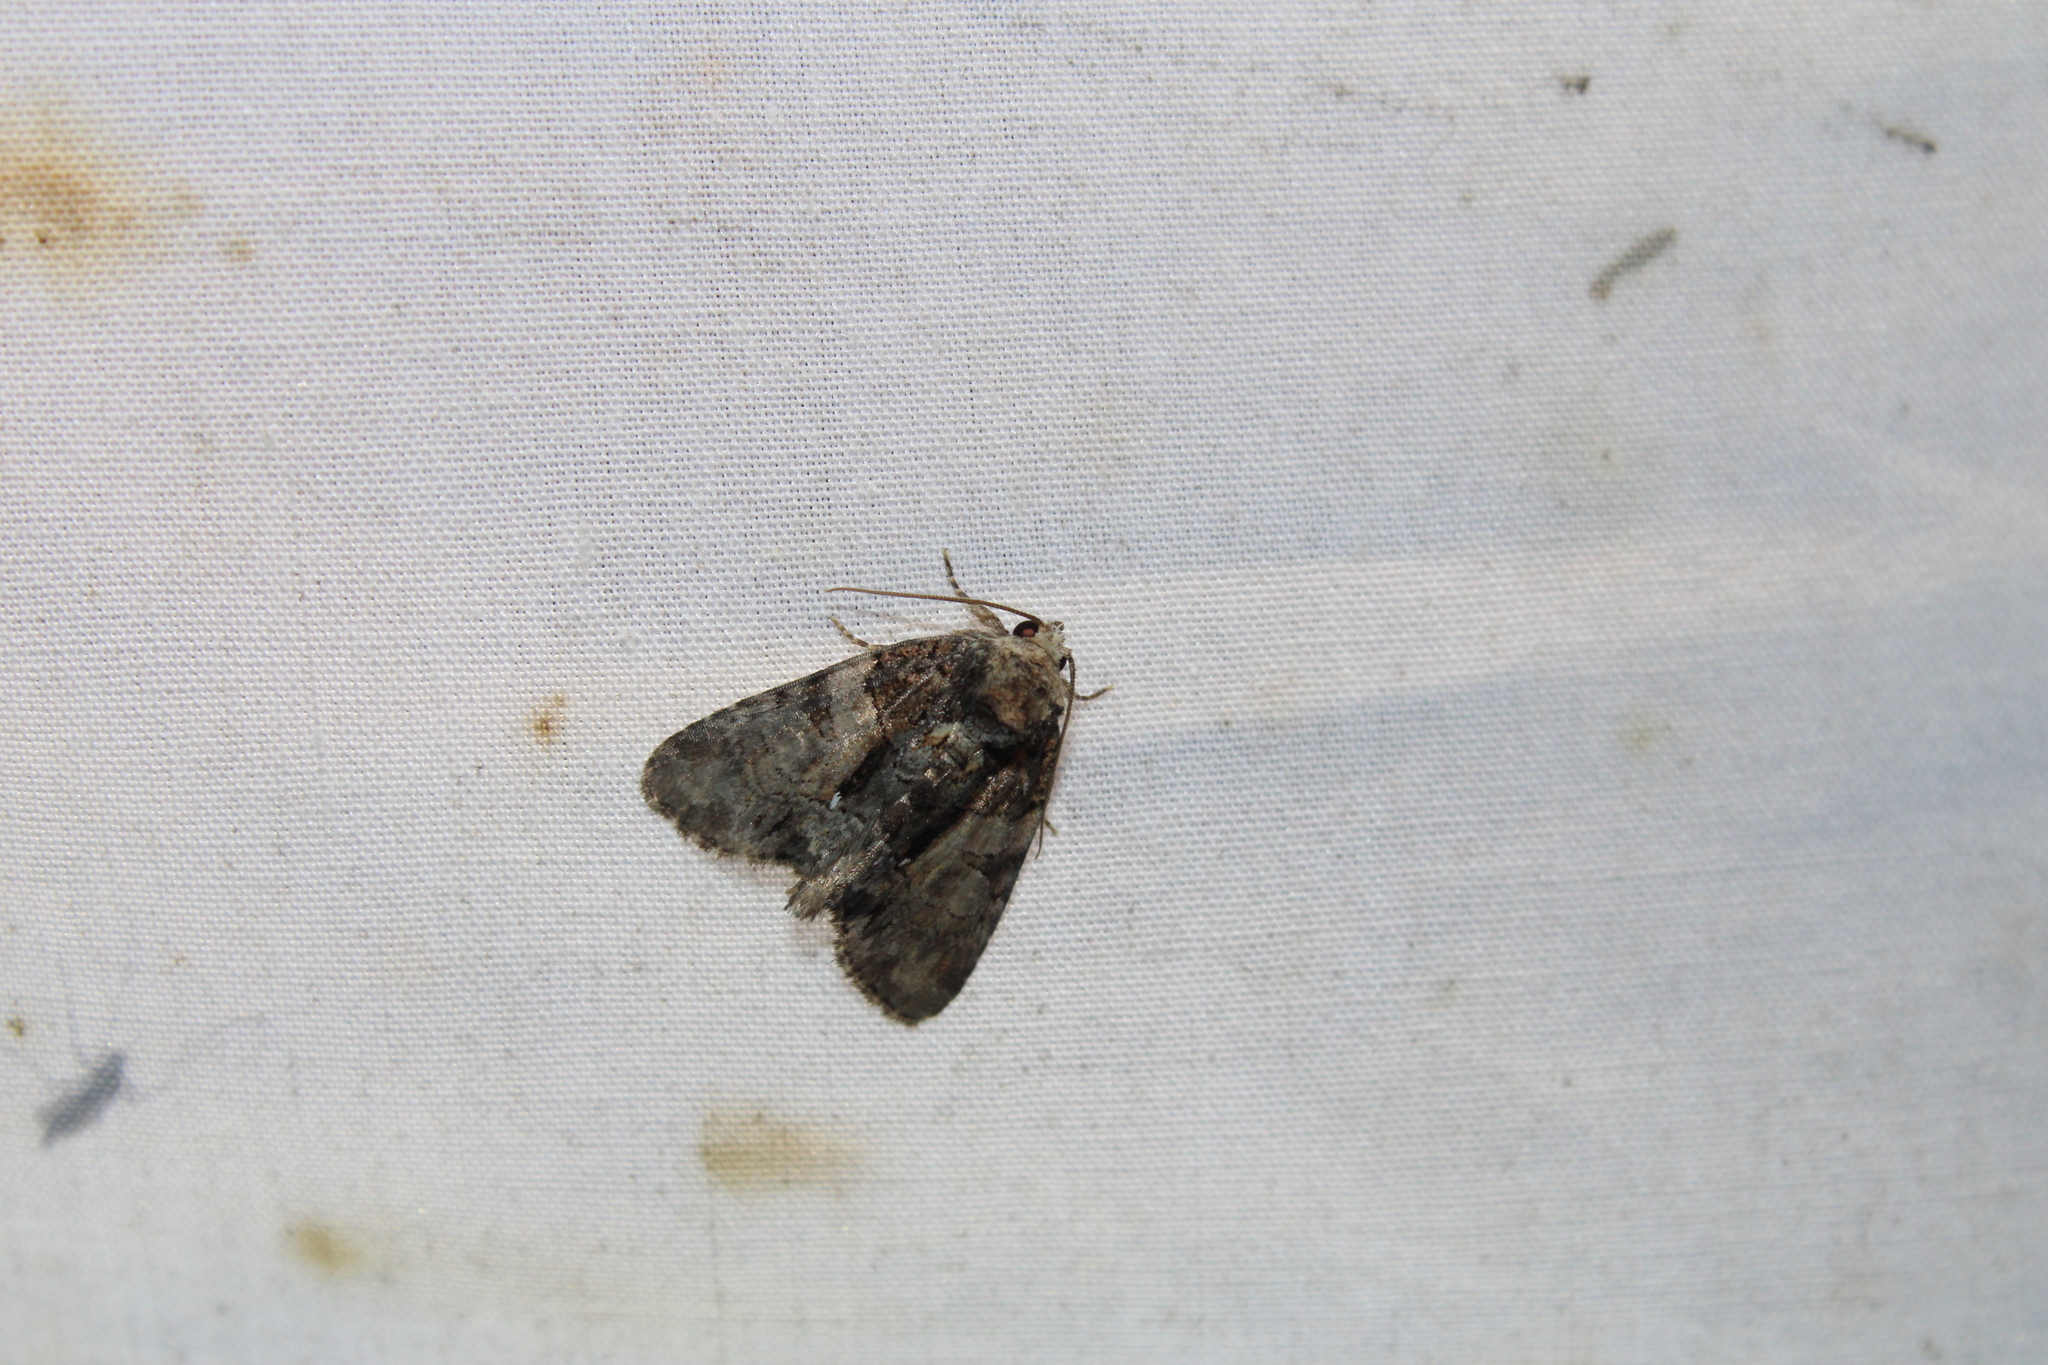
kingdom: Animalia
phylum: Arthropoda
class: Insecta
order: Lepidoptera
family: Noctuidae
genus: Chytonix
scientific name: Chytonix palliatricula
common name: Cloaked marvel
